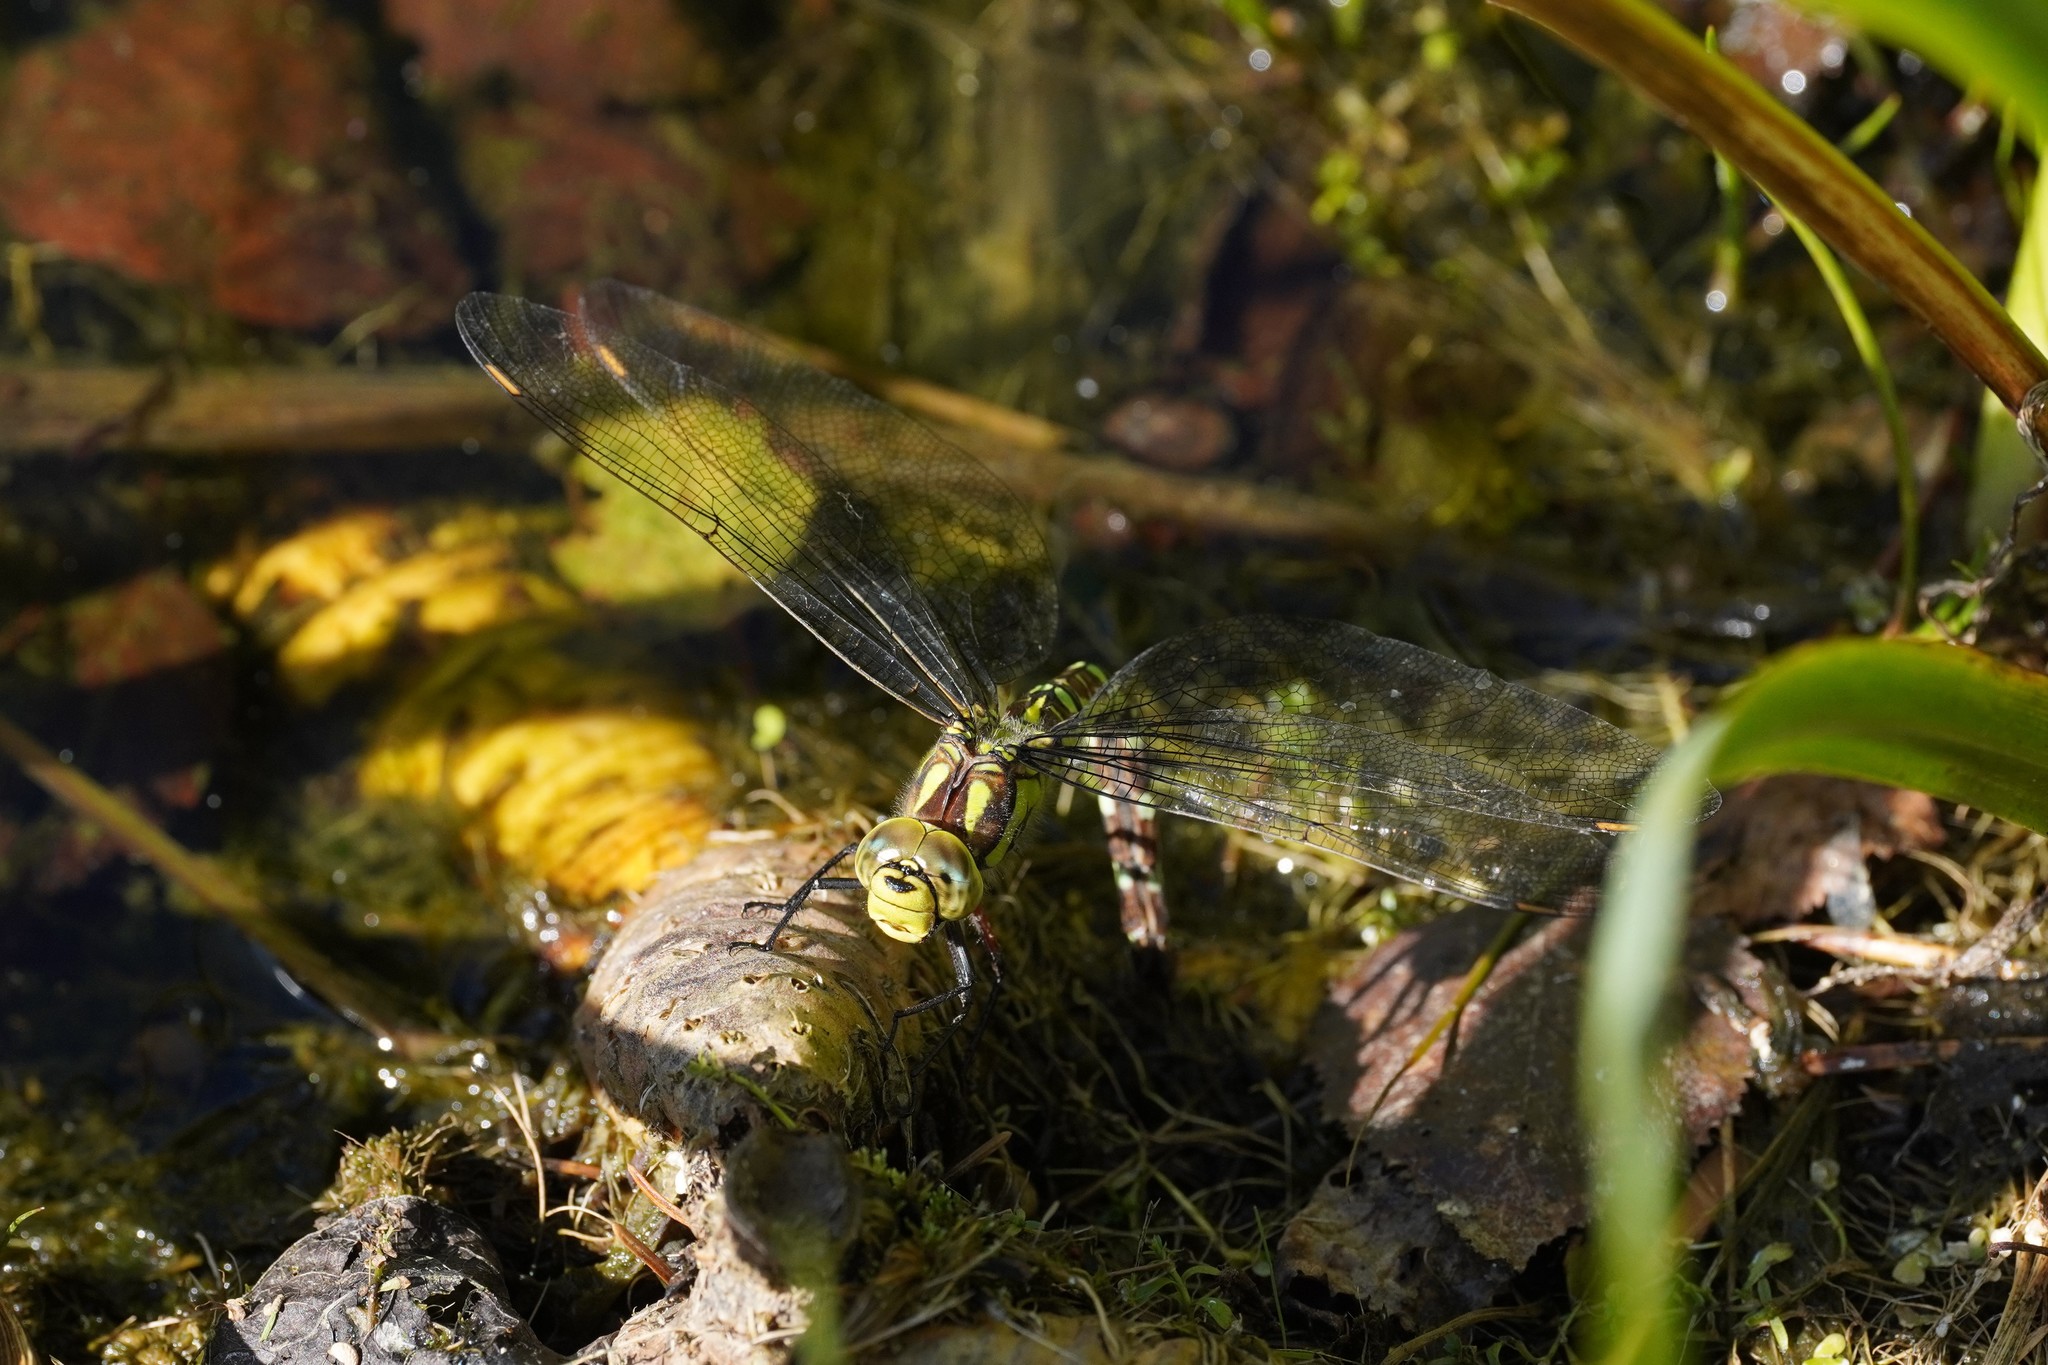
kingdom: Animalia
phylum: Arthropoda
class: Insecta
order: Odonata
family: Aeshnidae
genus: Aeshna
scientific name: Aeshna cyanea
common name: Southern hawker
